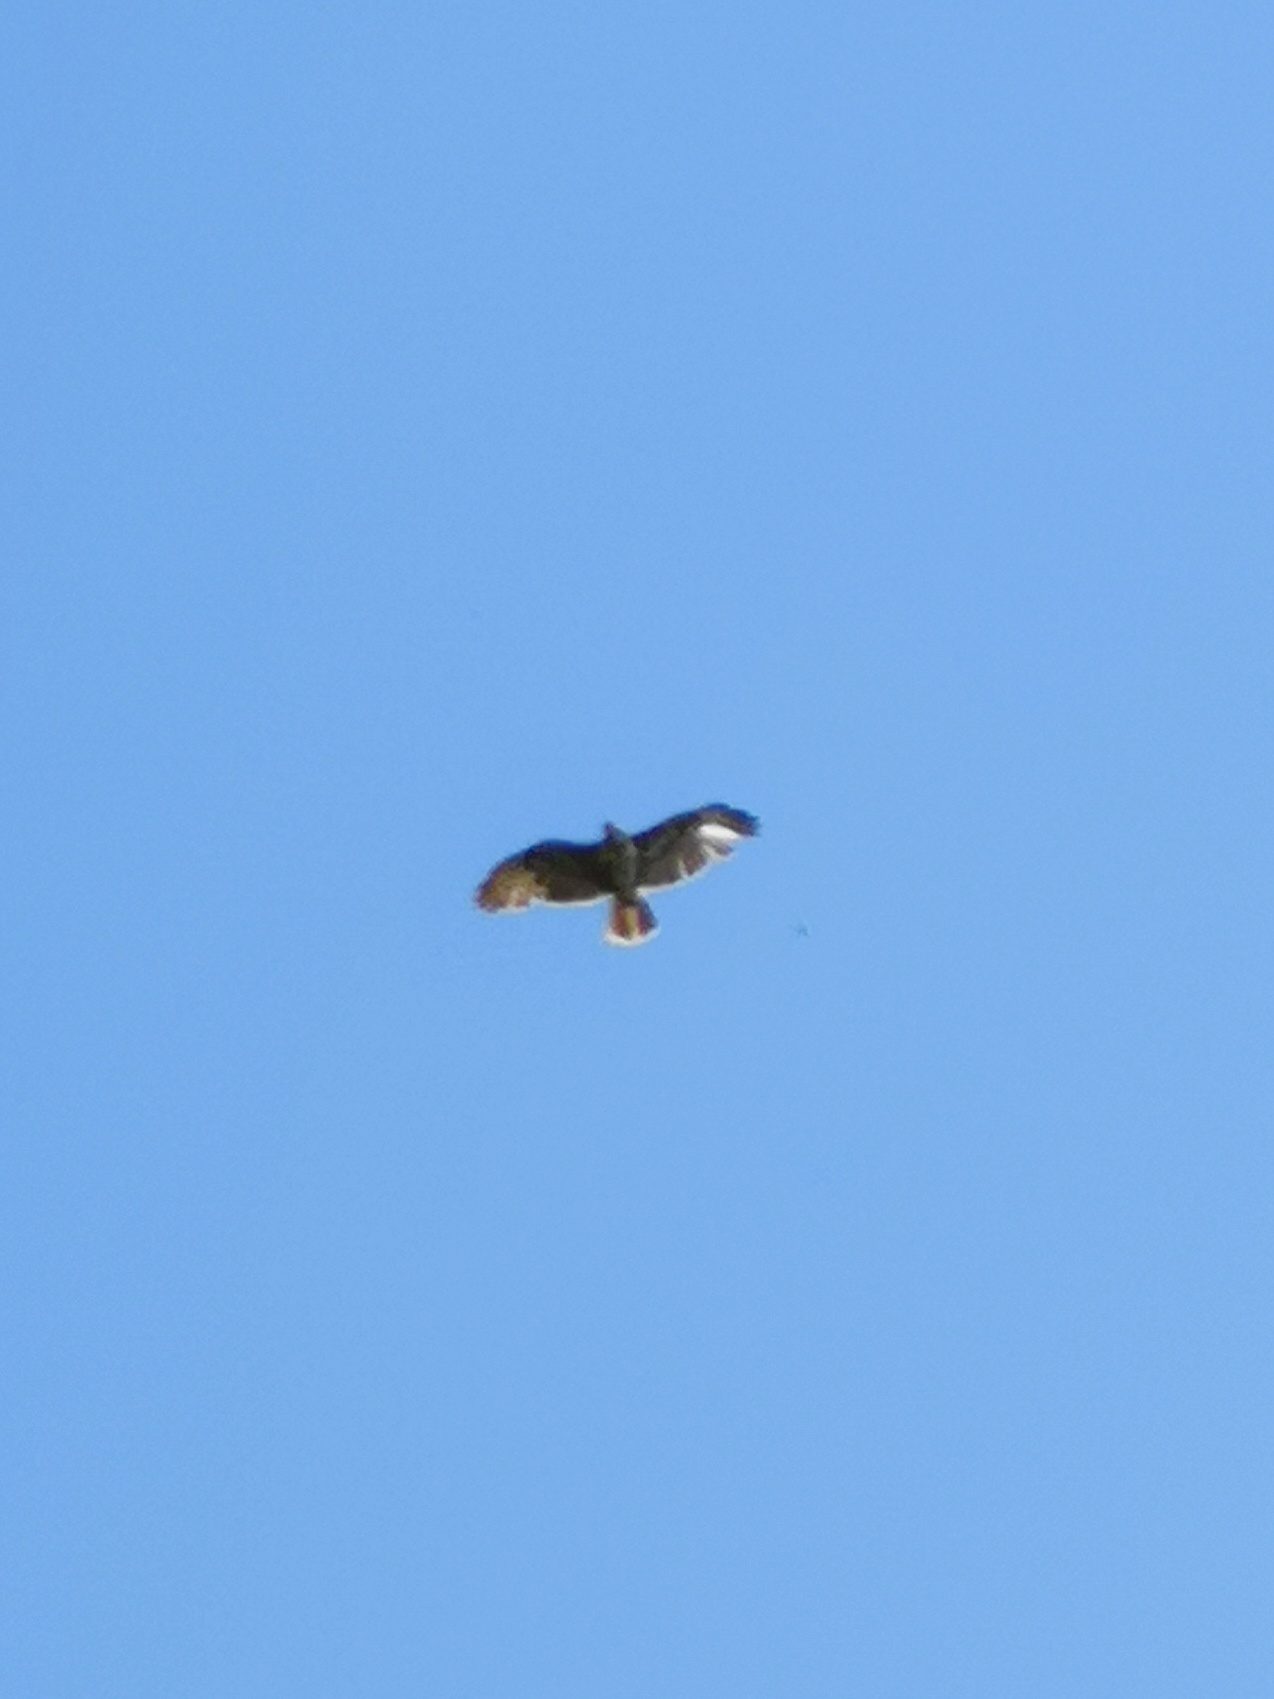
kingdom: Animalia
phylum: Chordata
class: Aves
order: Accipitriformes
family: Accipitridae
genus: Buteo
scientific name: Buteo buteo
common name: Common buzzard
